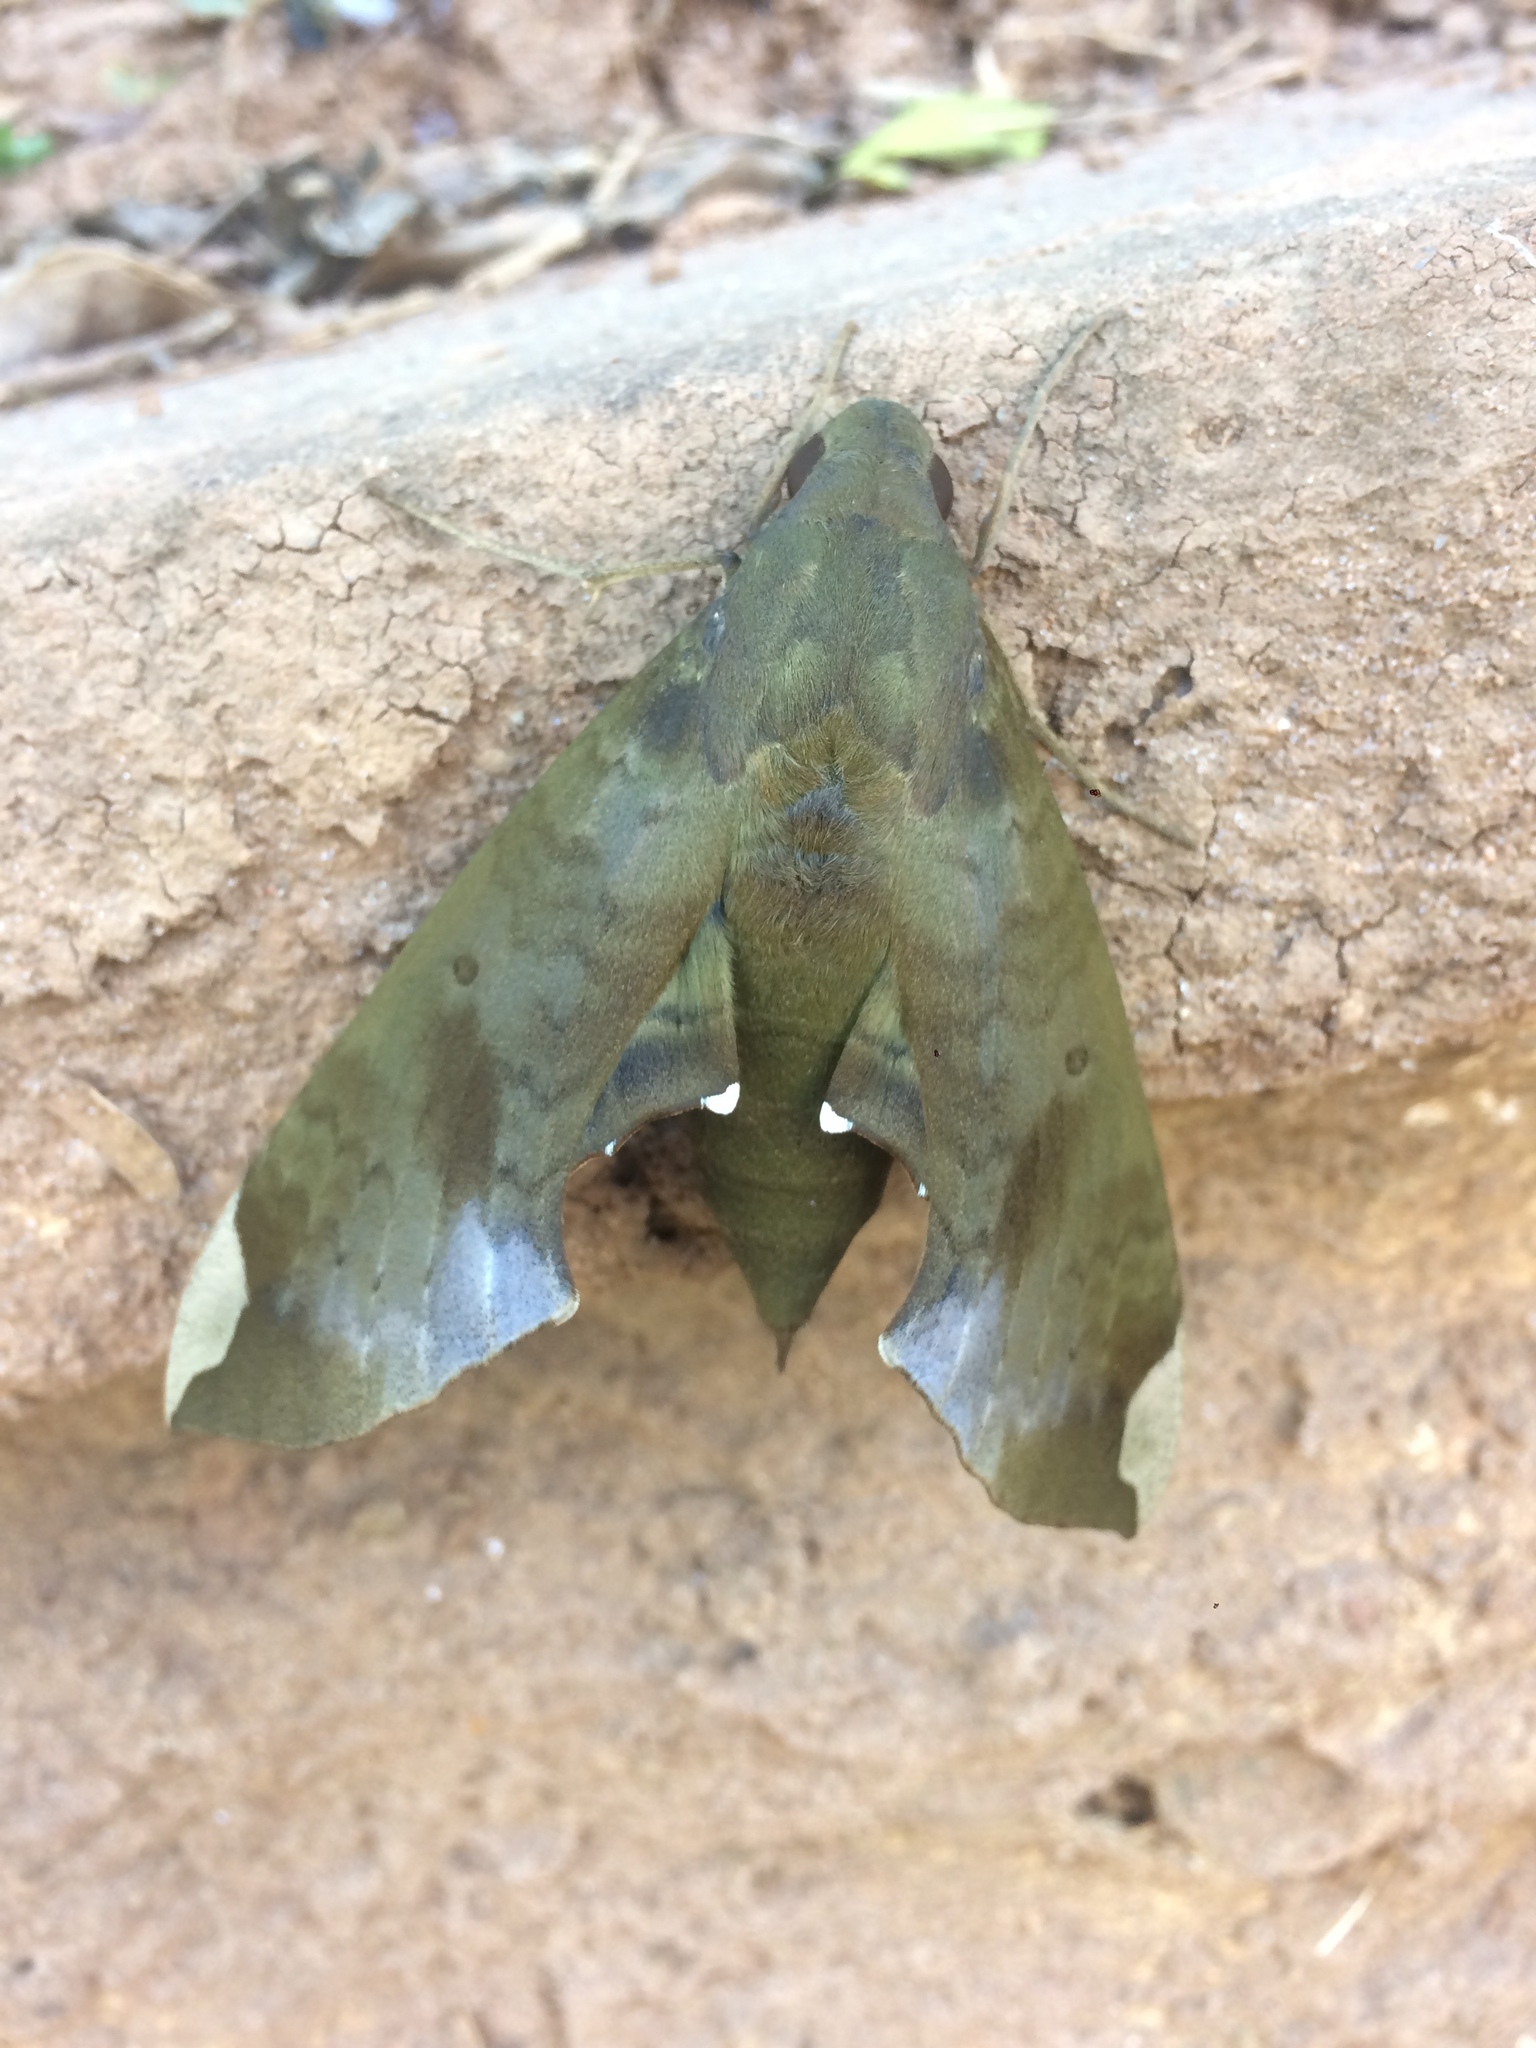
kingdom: Animalia
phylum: Arthropoda
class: Insecta
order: Lepidoptera
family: Sphingidae
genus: Pachylia
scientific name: Pachylia ficus
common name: Fig sphinx
